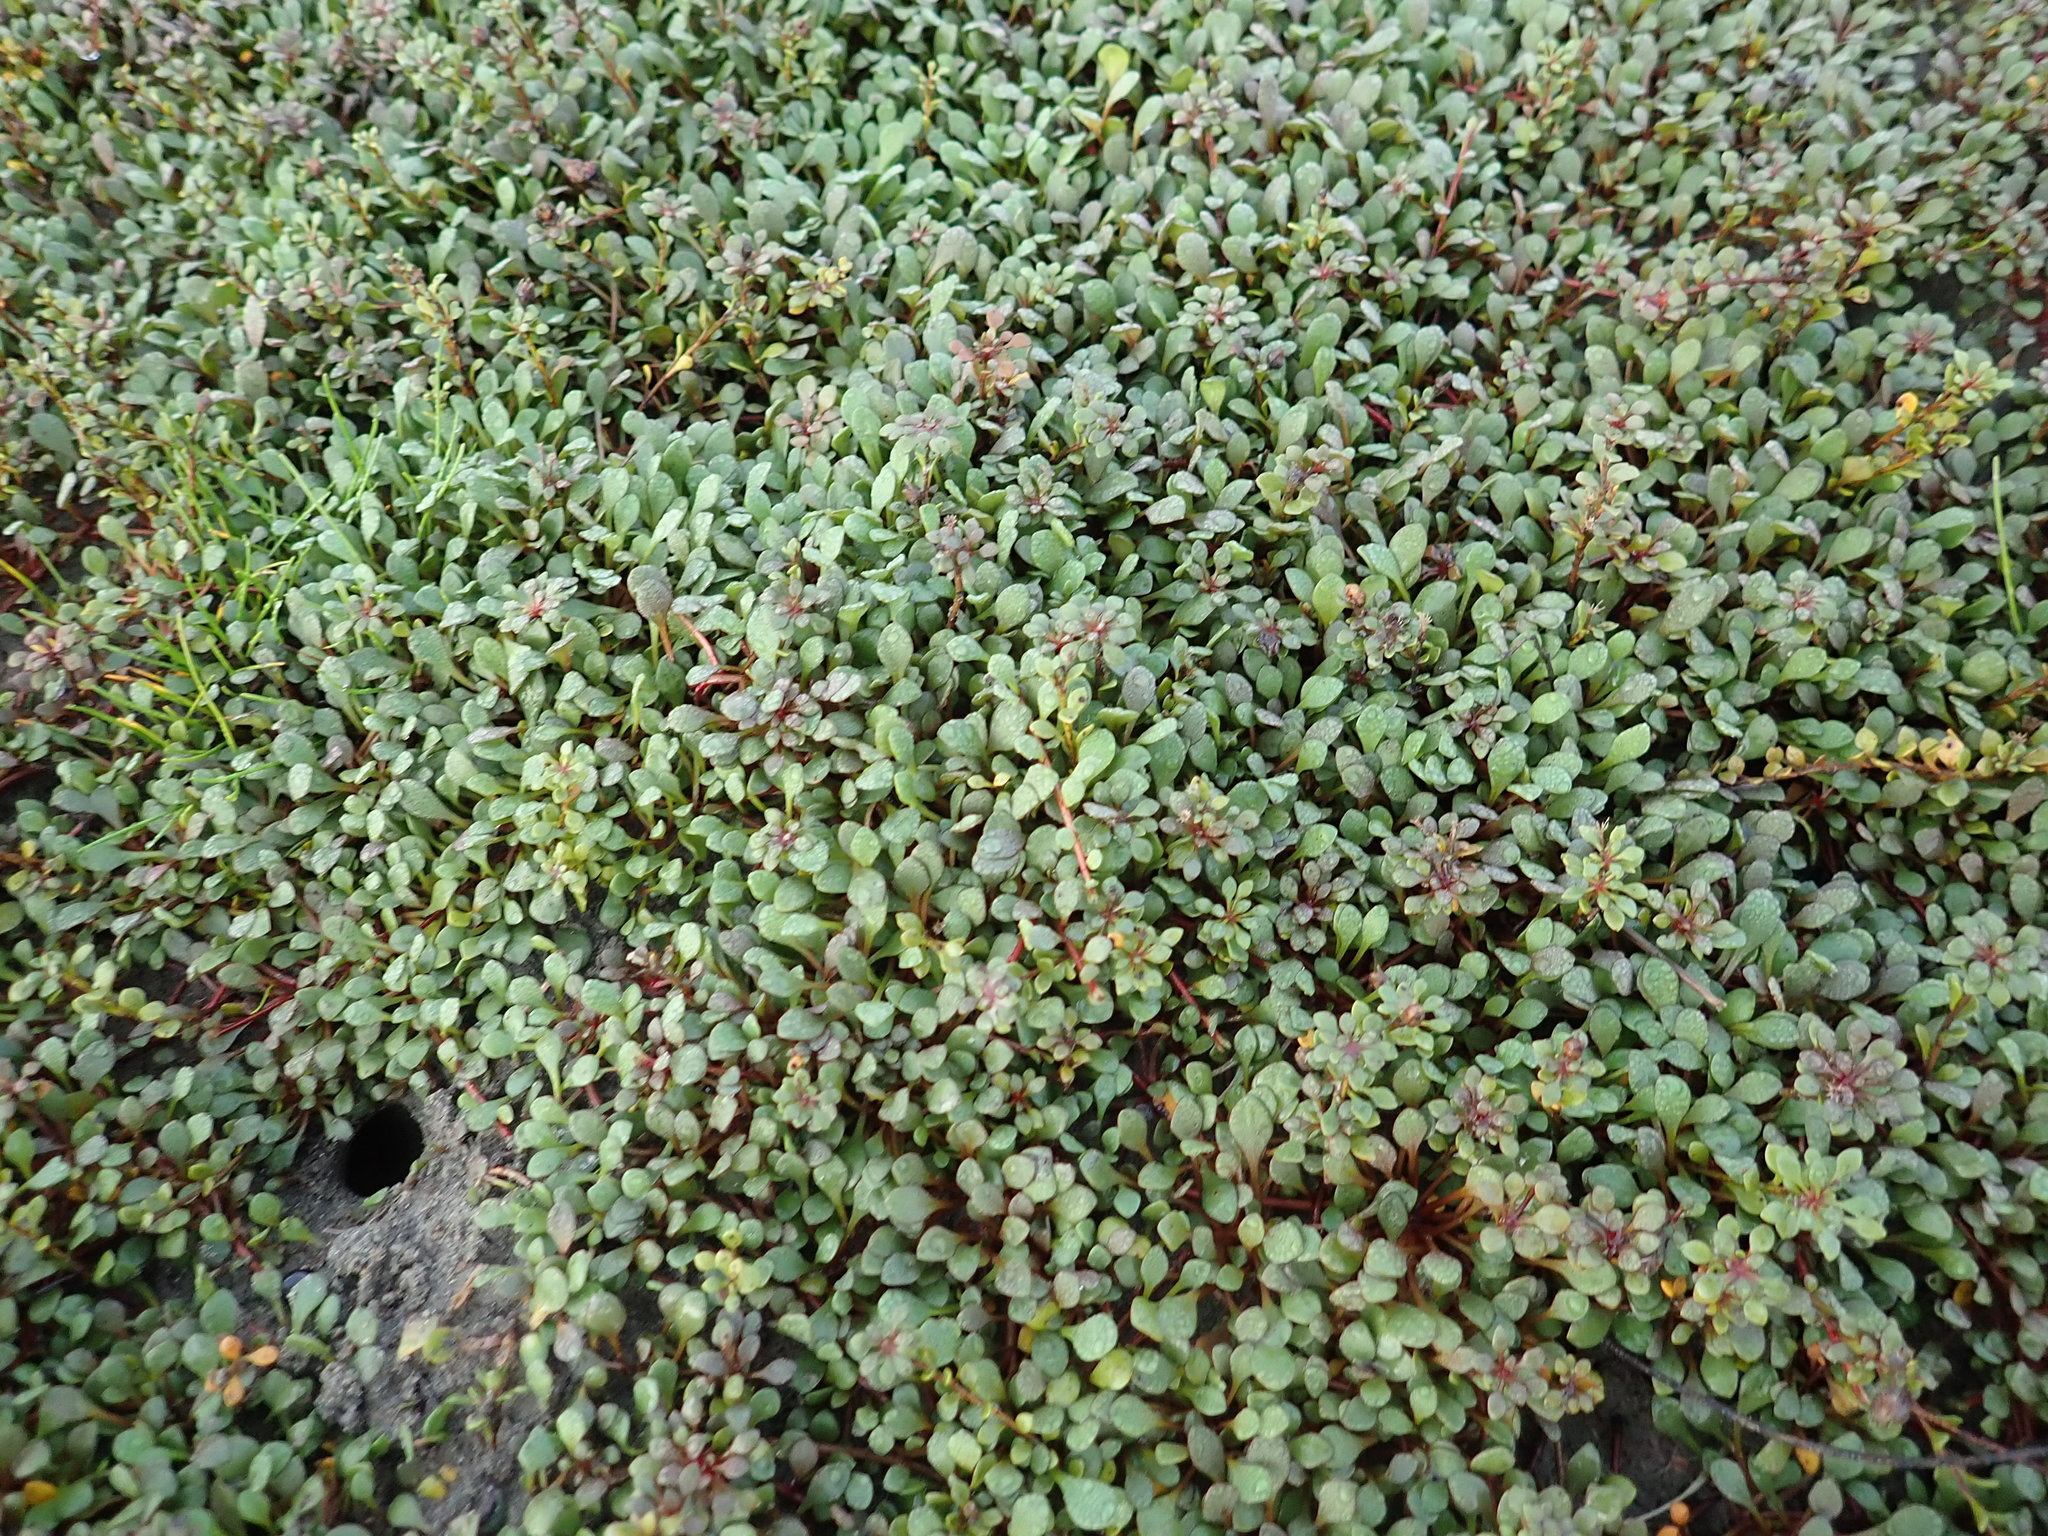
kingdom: Plantae
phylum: Tracheophyta
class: Magnoliopsida
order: Ericales
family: Primulaceae
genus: Samolus
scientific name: Samolus repens
